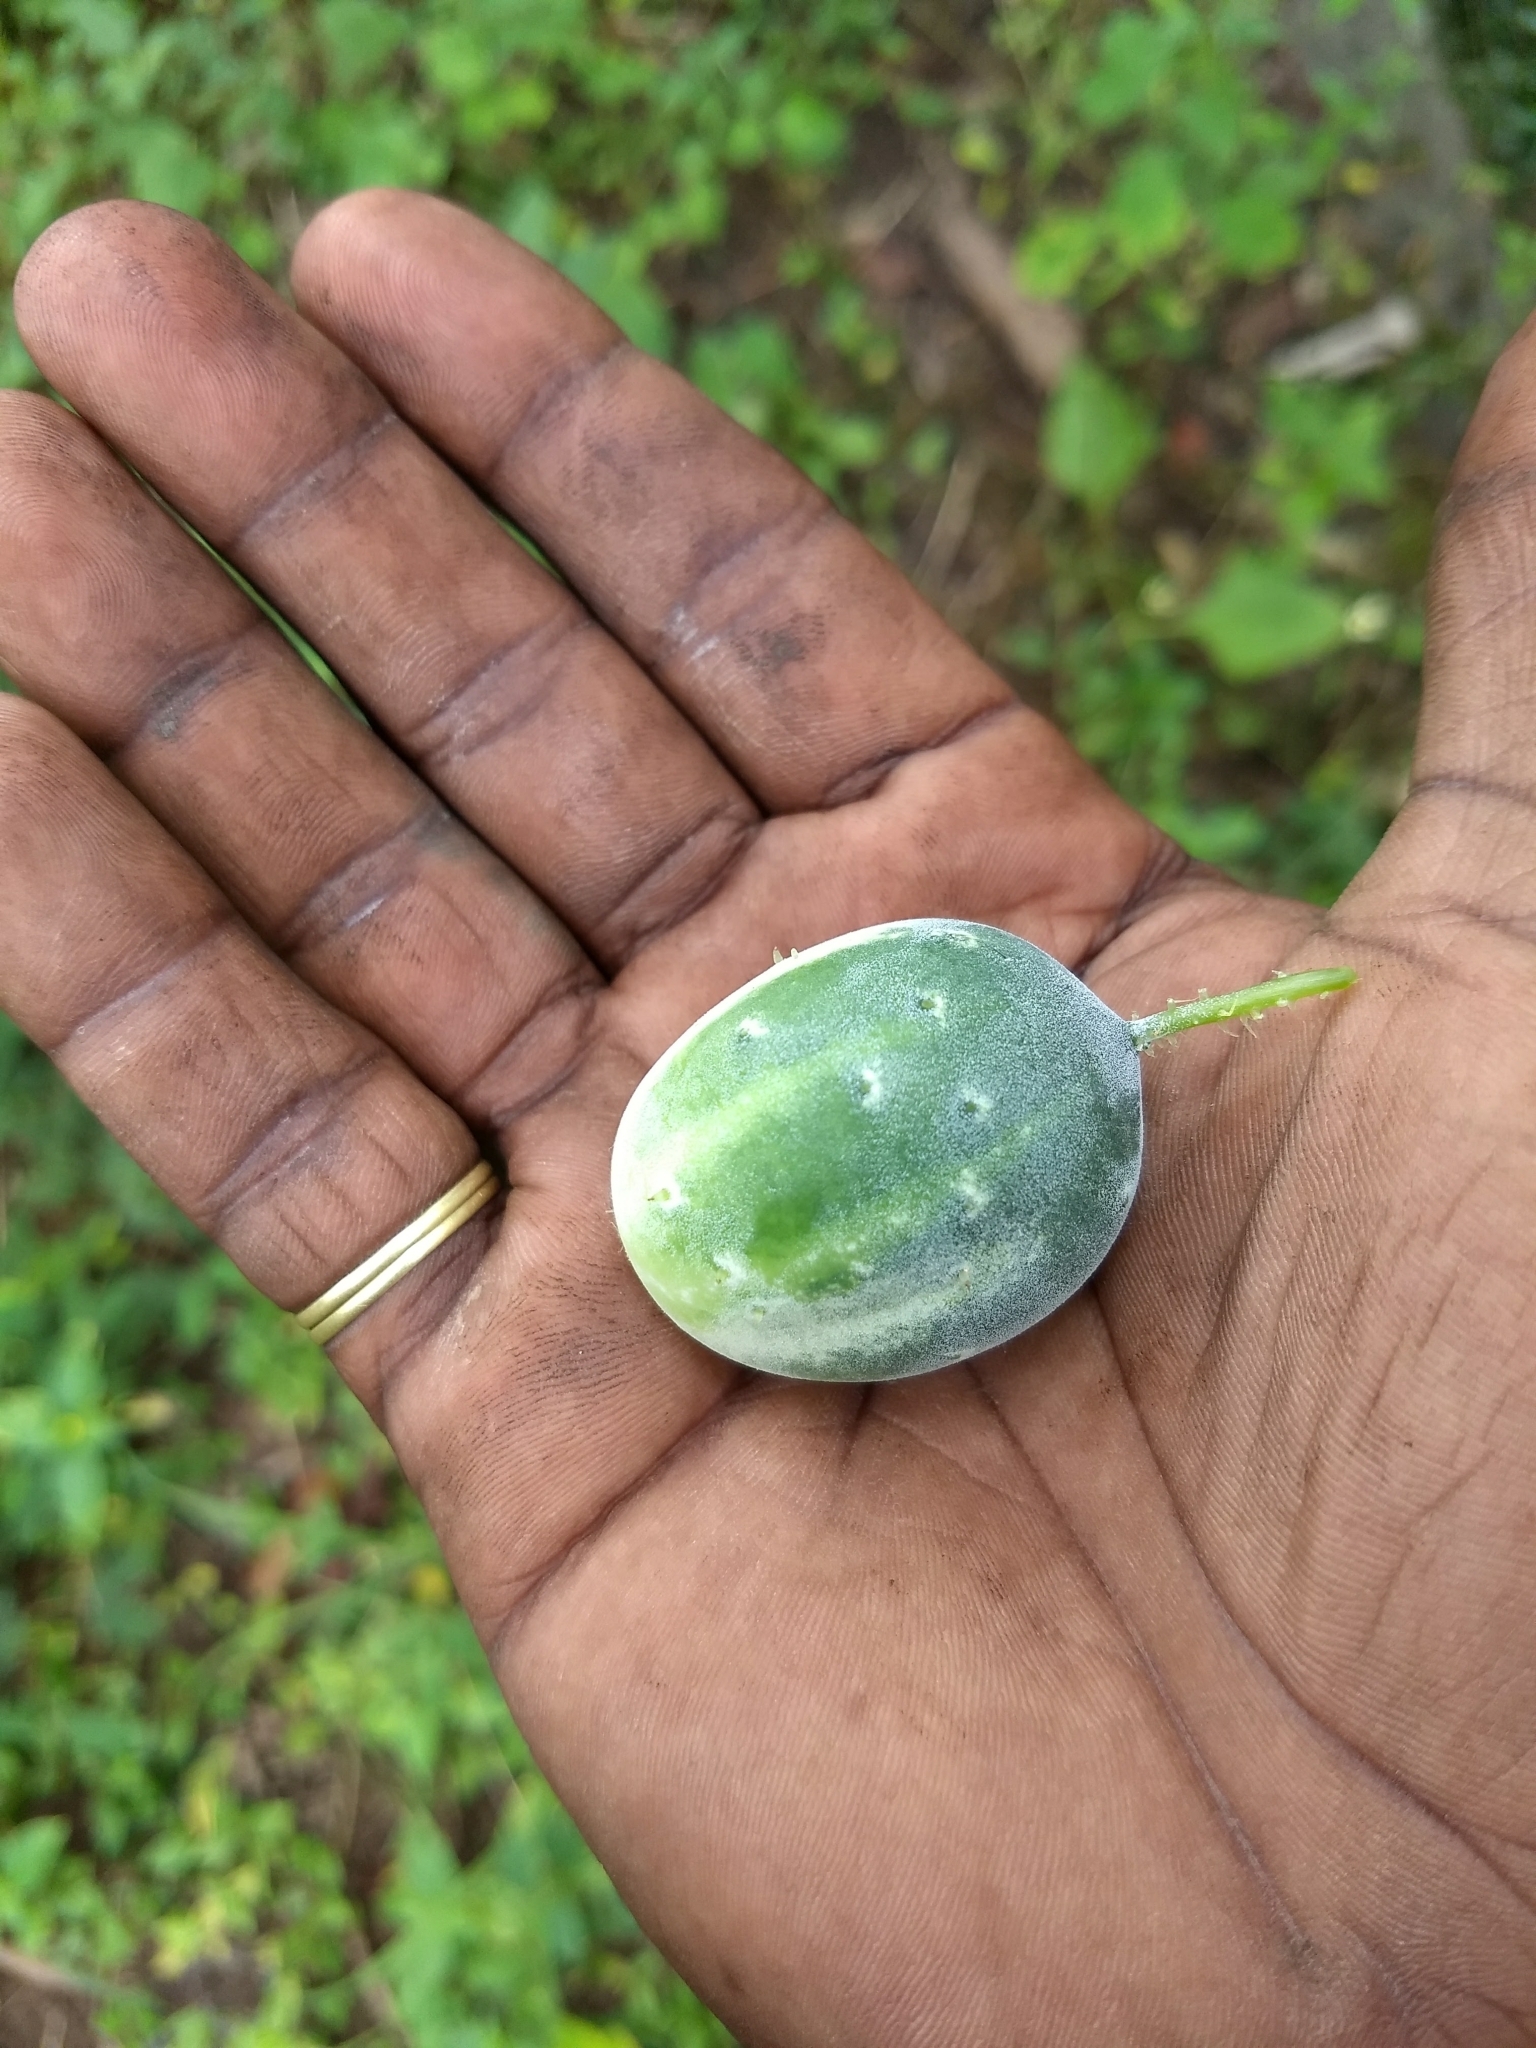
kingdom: Plantae
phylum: Tracheophyta
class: Magnoliopsida
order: Cucurbitales
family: Cucurbitaceae
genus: Cucumis
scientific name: Cucumis sativus
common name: Cucumber
